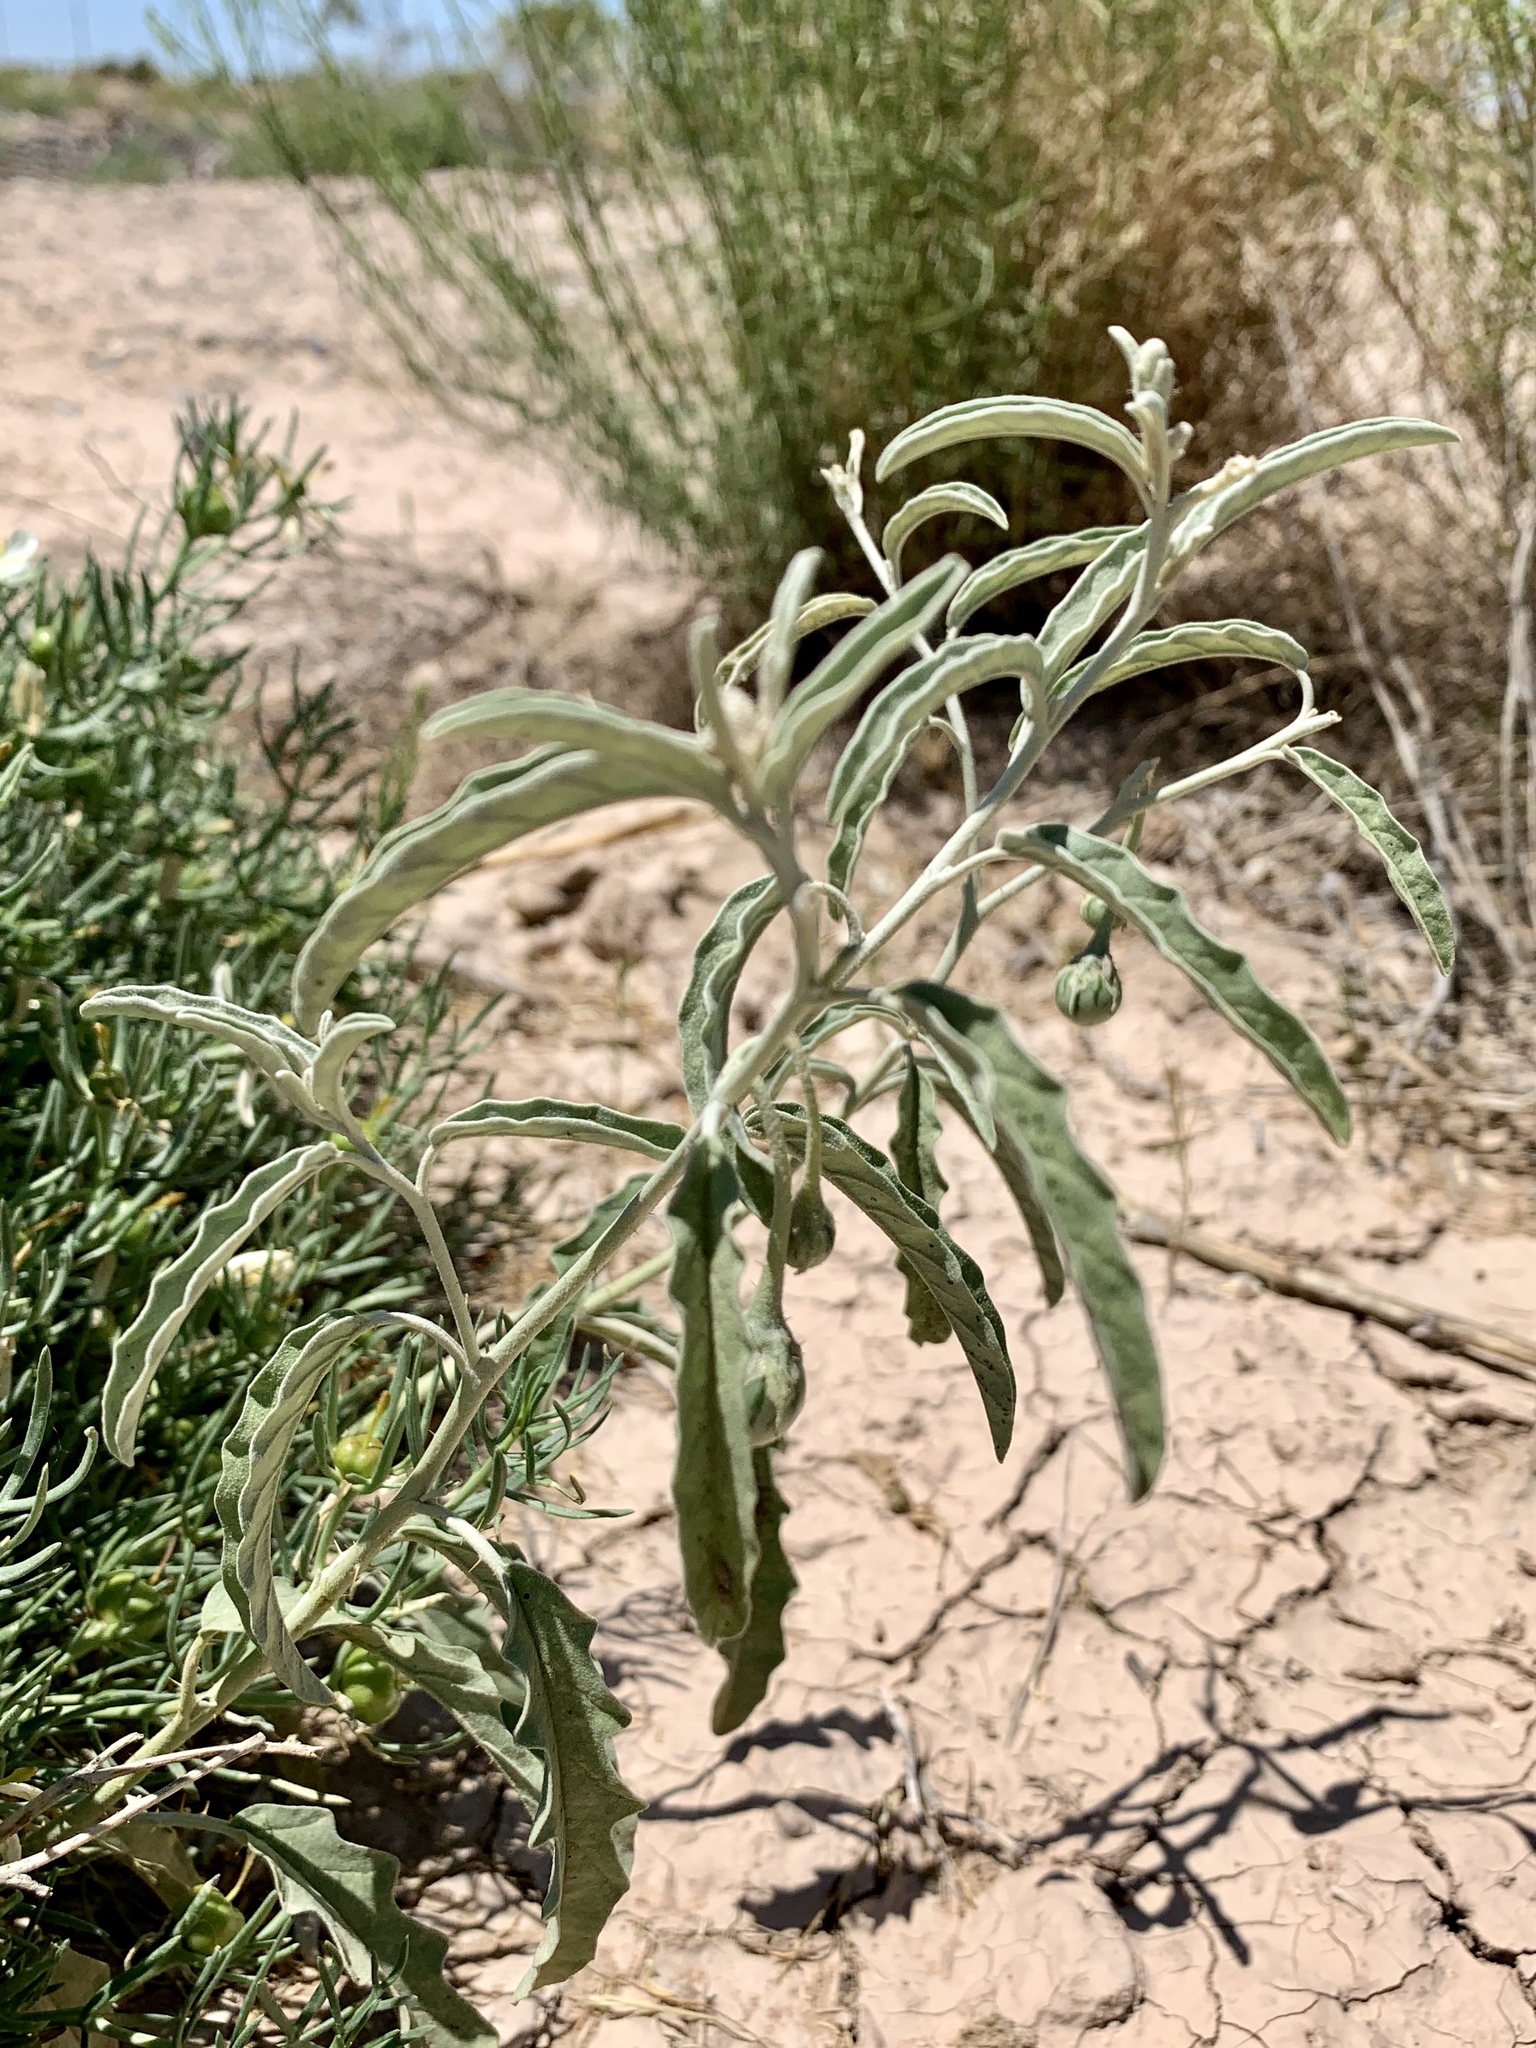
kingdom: Plantae
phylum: Tracheophyta
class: Magnoliopsida
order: Solanales
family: Solanaceae
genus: Solanum
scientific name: Solanum elaeagnifolium
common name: Silverleaf nightshade
